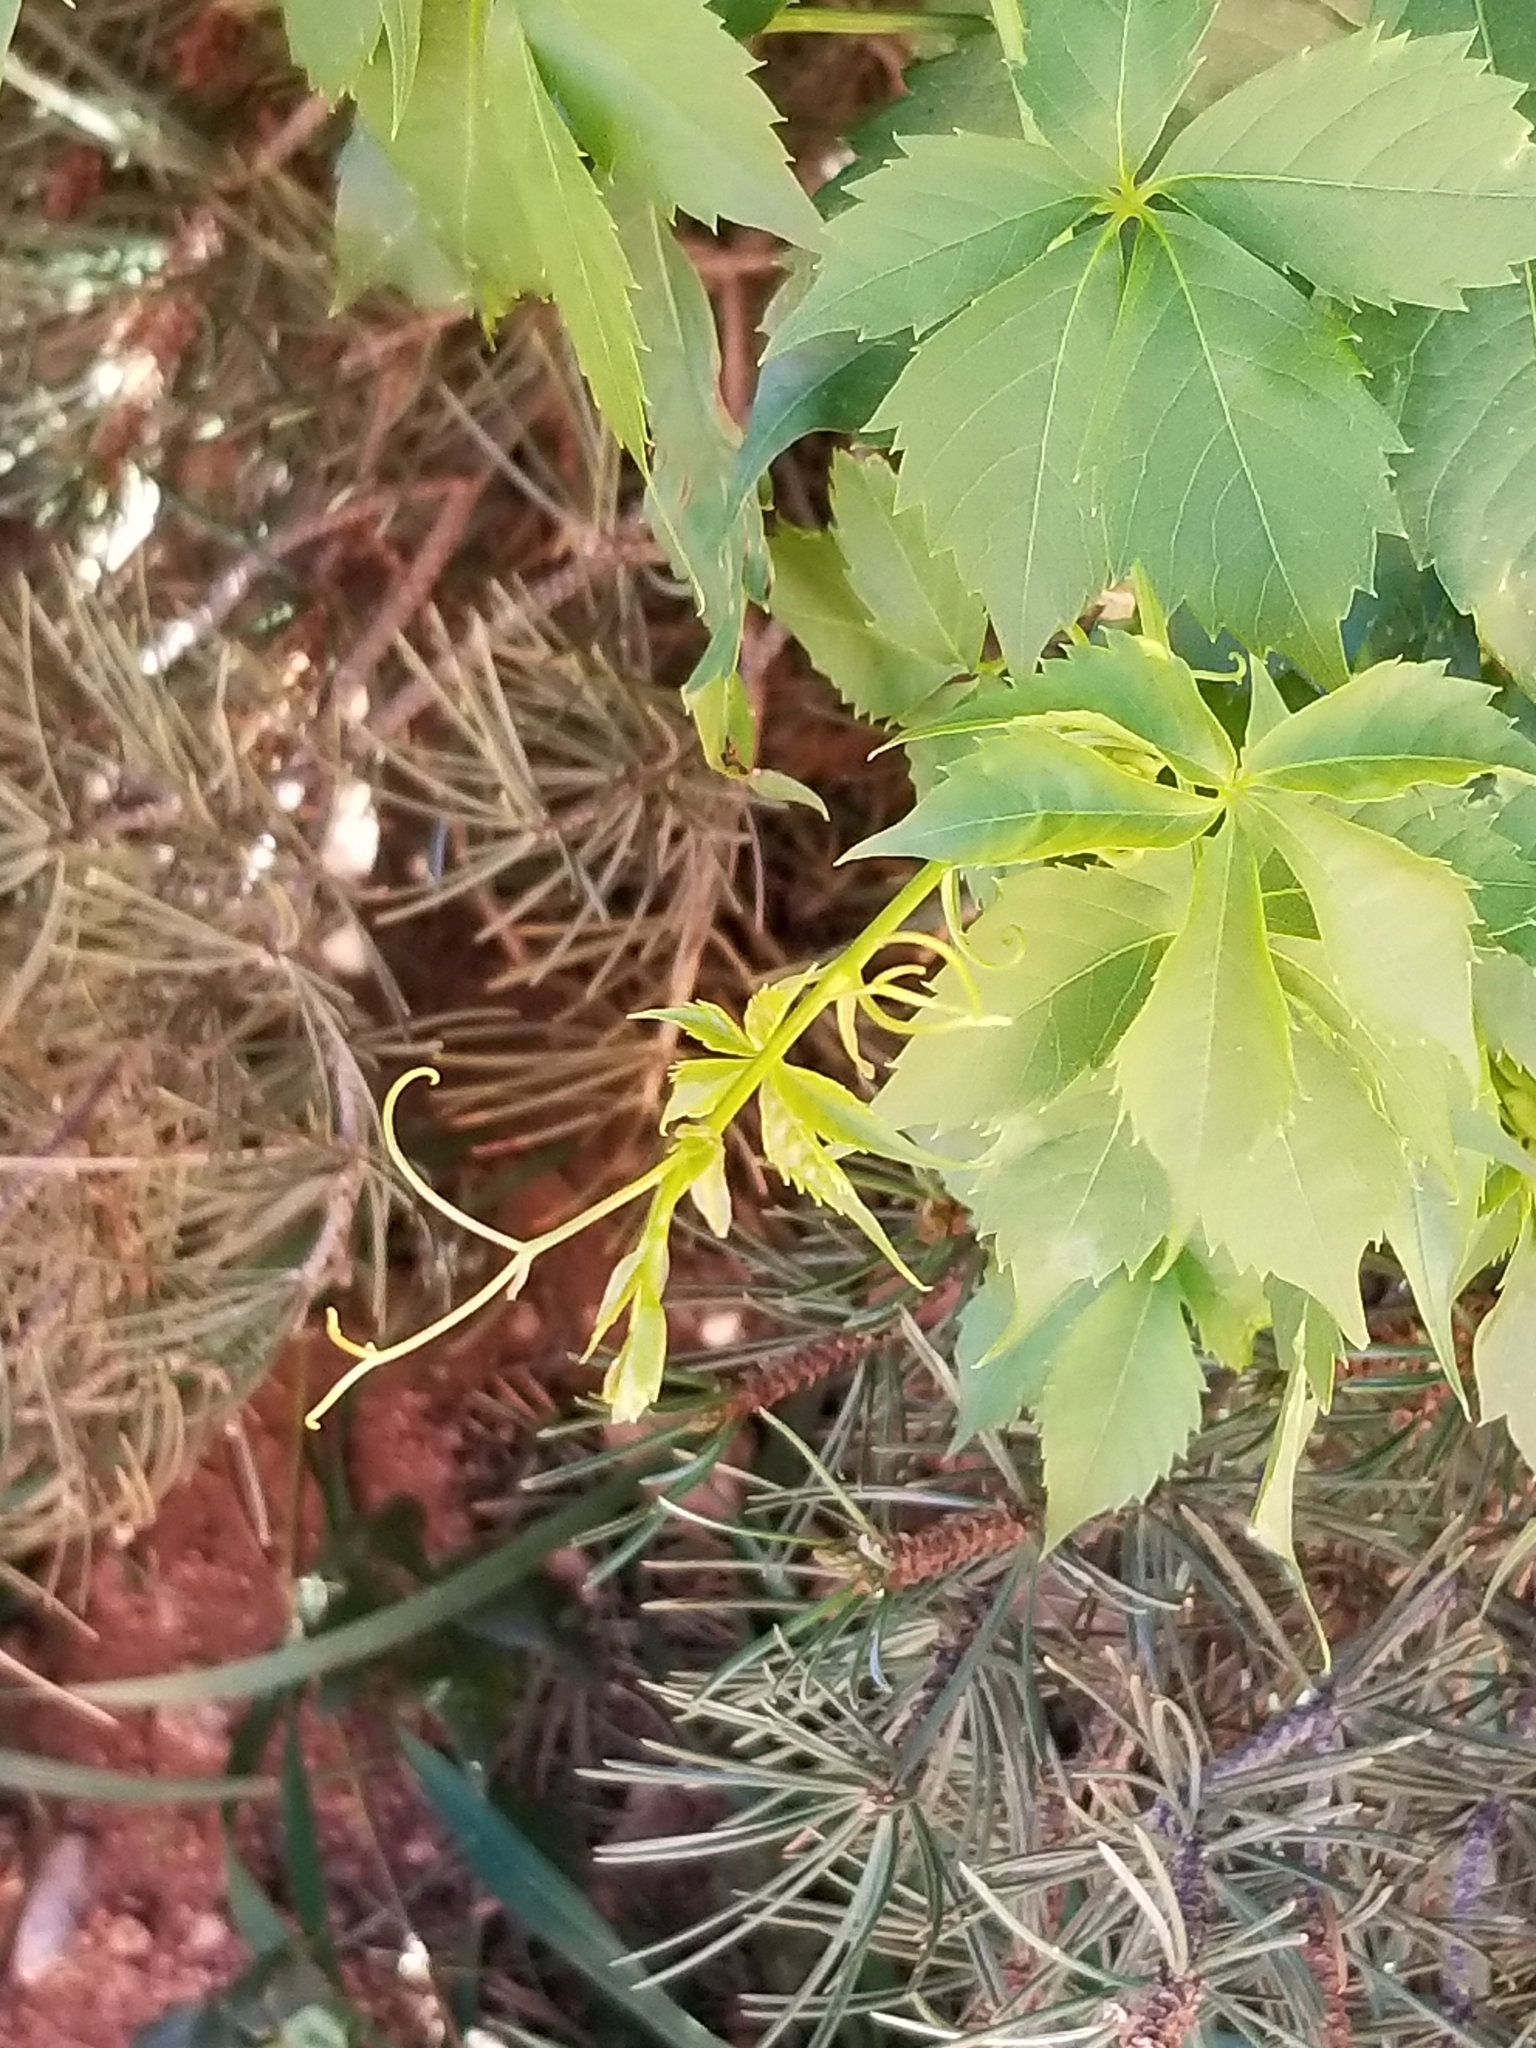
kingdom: Plantae
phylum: Tracheophyta
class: Magnoliopsida
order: Vitales
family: Vitaceae
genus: Parthenocissus
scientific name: Parthenocissus quinquefolia
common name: Virginia-creeper
